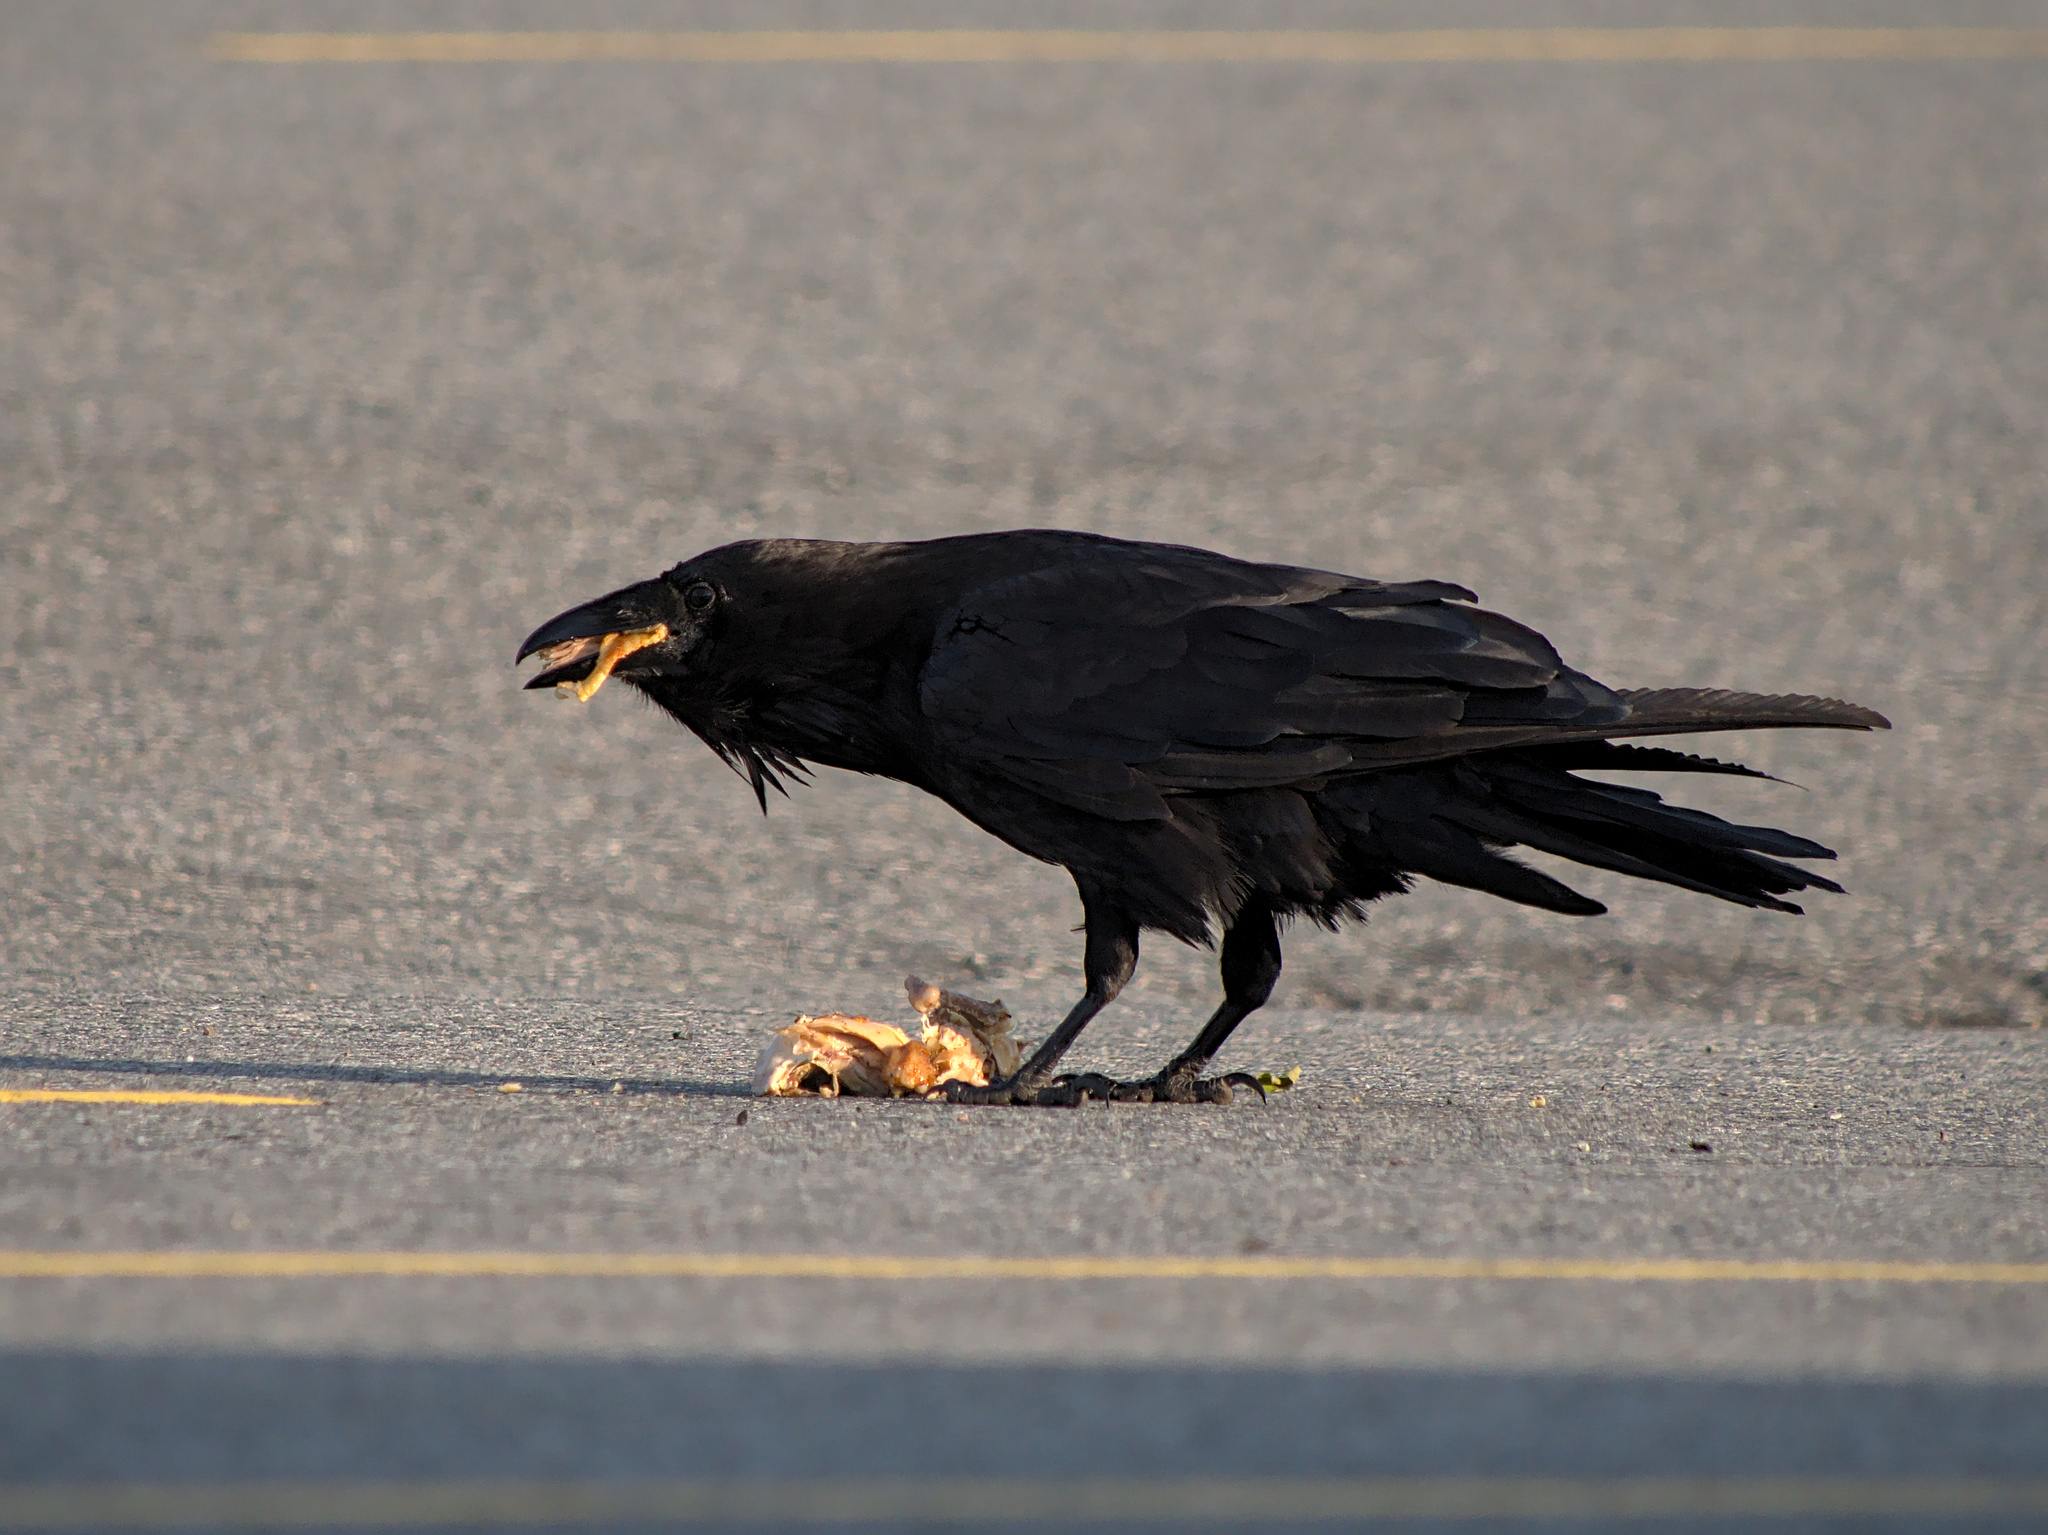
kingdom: Animalia
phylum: Chordata
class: Aves
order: Passeriformes
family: Corvidae
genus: Corvus
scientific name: Corvus corax
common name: Common raven
